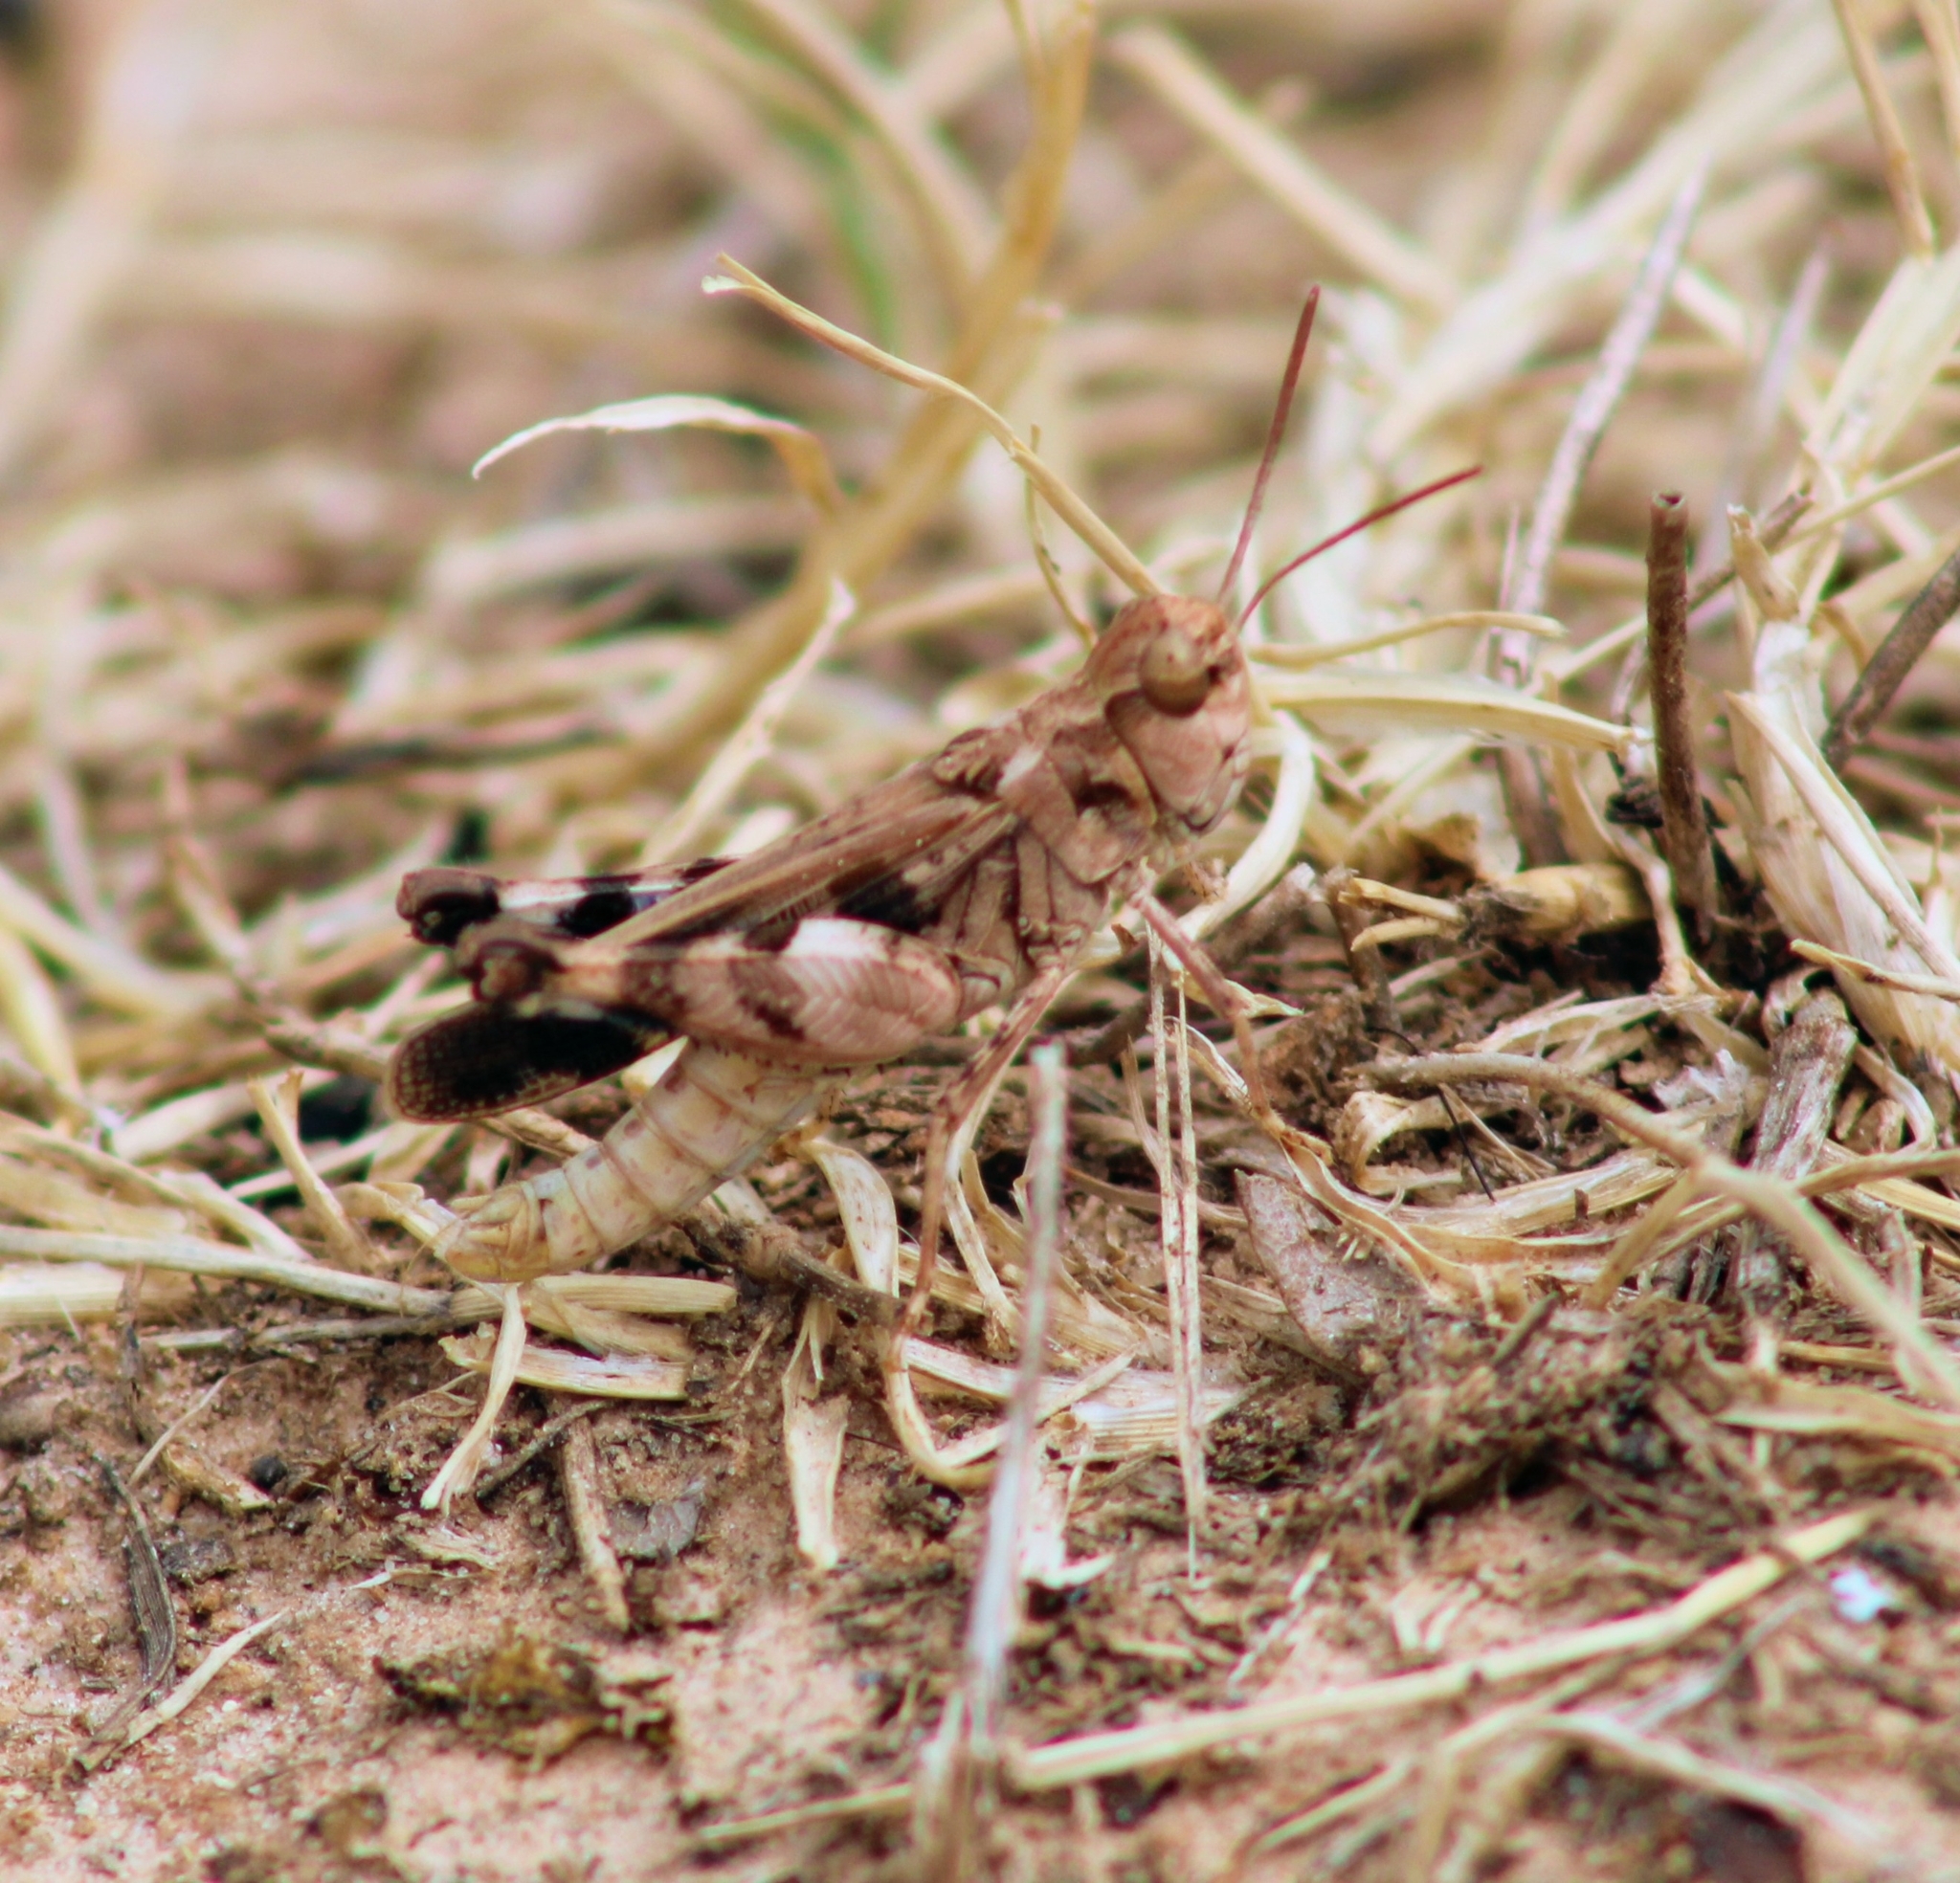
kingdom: Animalia
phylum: Arthropoda
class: Insecta
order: Orthoptera
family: Acrididae
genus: Encoptolophus
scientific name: Encoptolophus costalis
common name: Dusky grasshopper
